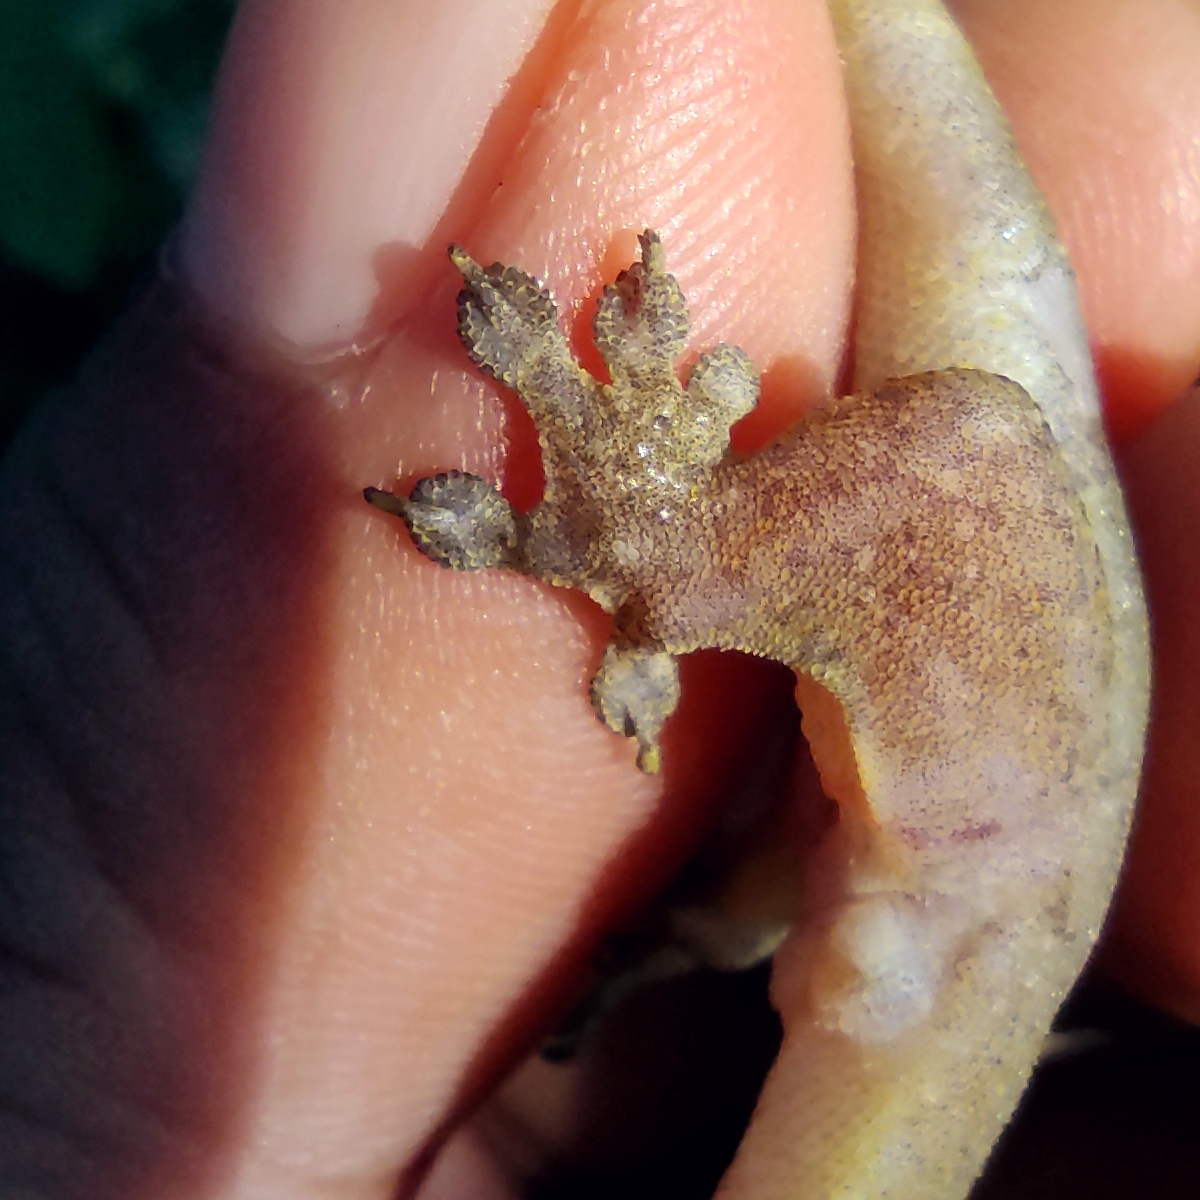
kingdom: Animalia
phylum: Chordata
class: Squamata
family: Gekkonidae
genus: Gehyra
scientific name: Gehyra mutilata
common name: Stump-toed gecko
